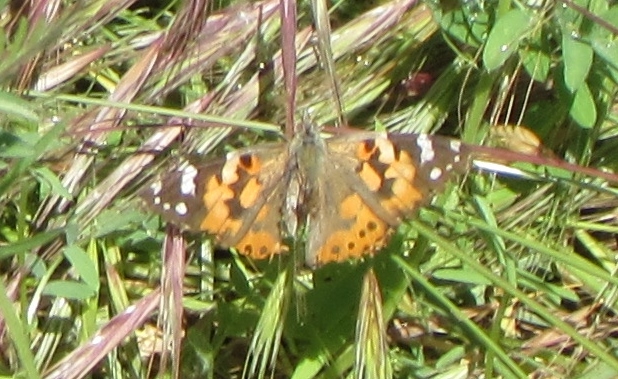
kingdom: Animalia
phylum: Arthropoda
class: Insecta
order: Lepidoptera
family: Nymphalidae
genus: Vanessa
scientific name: Vanessa cardui
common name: Painted lady
